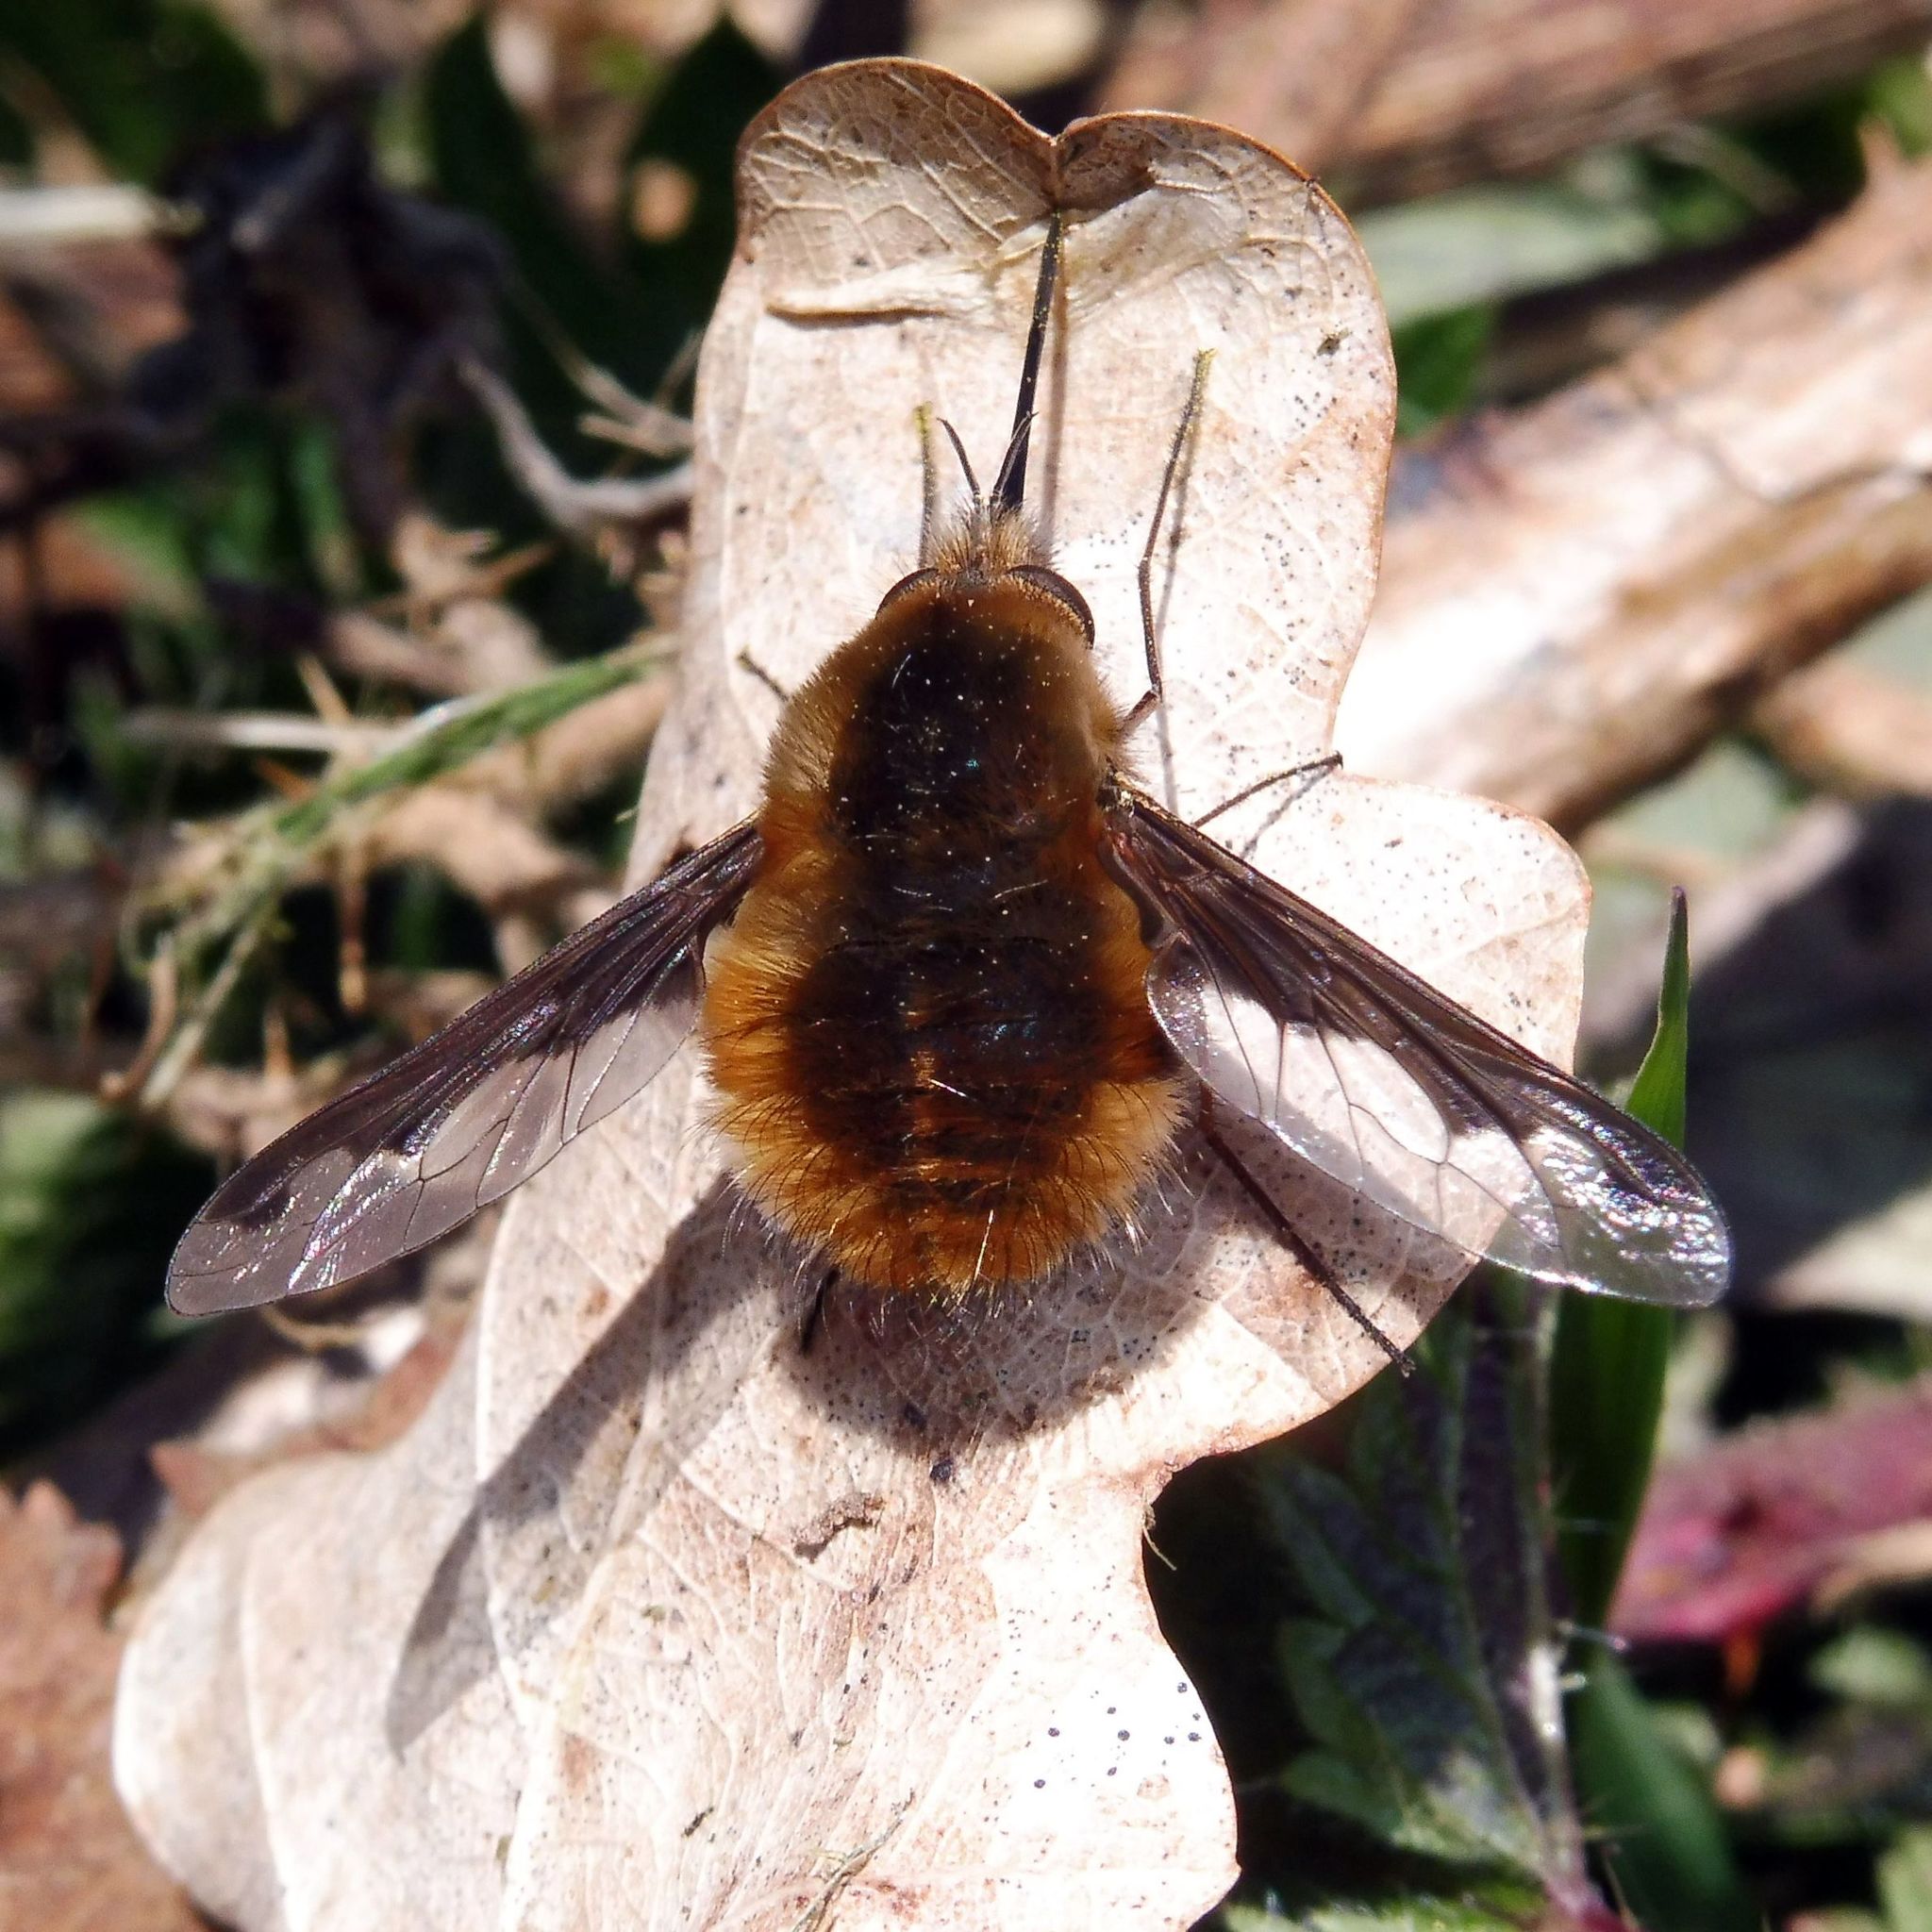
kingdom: Animalia
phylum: Arthropoda
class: Insecta
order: Diptera
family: Bombyliidae
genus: Bombylius
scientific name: Bombylius major
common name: Bee fly
